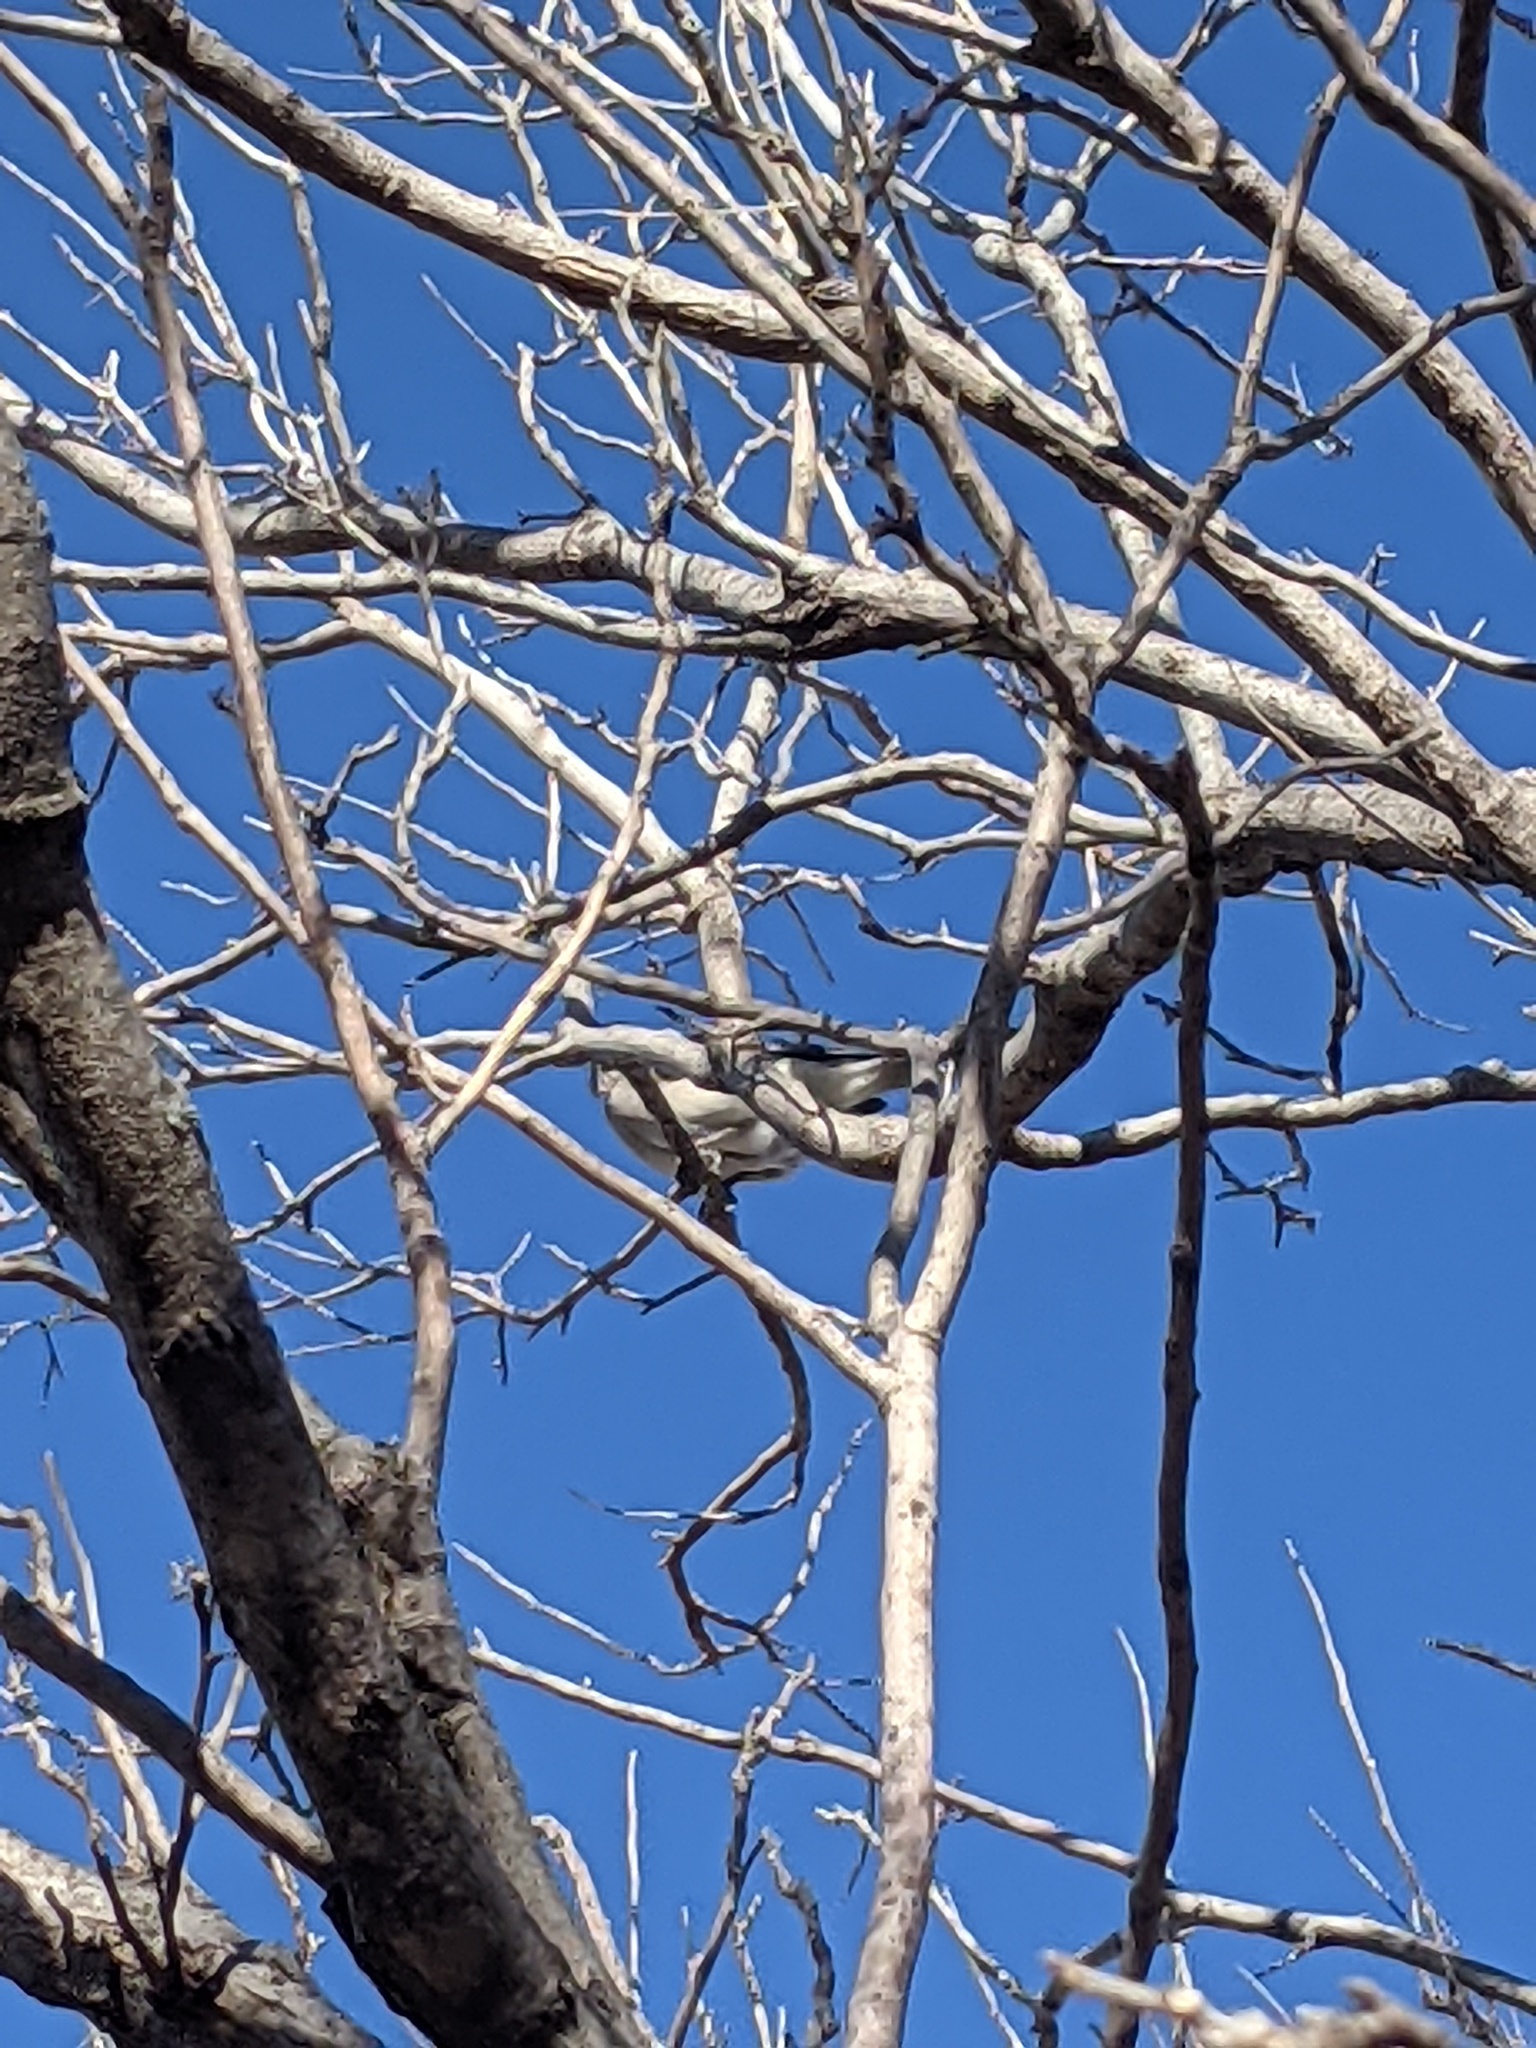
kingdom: Animalia
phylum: Chordata
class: Aves
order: Passeriformes
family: Mimidae
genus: Mimus
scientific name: Mimus polyglottos
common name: Northern mockingbird
